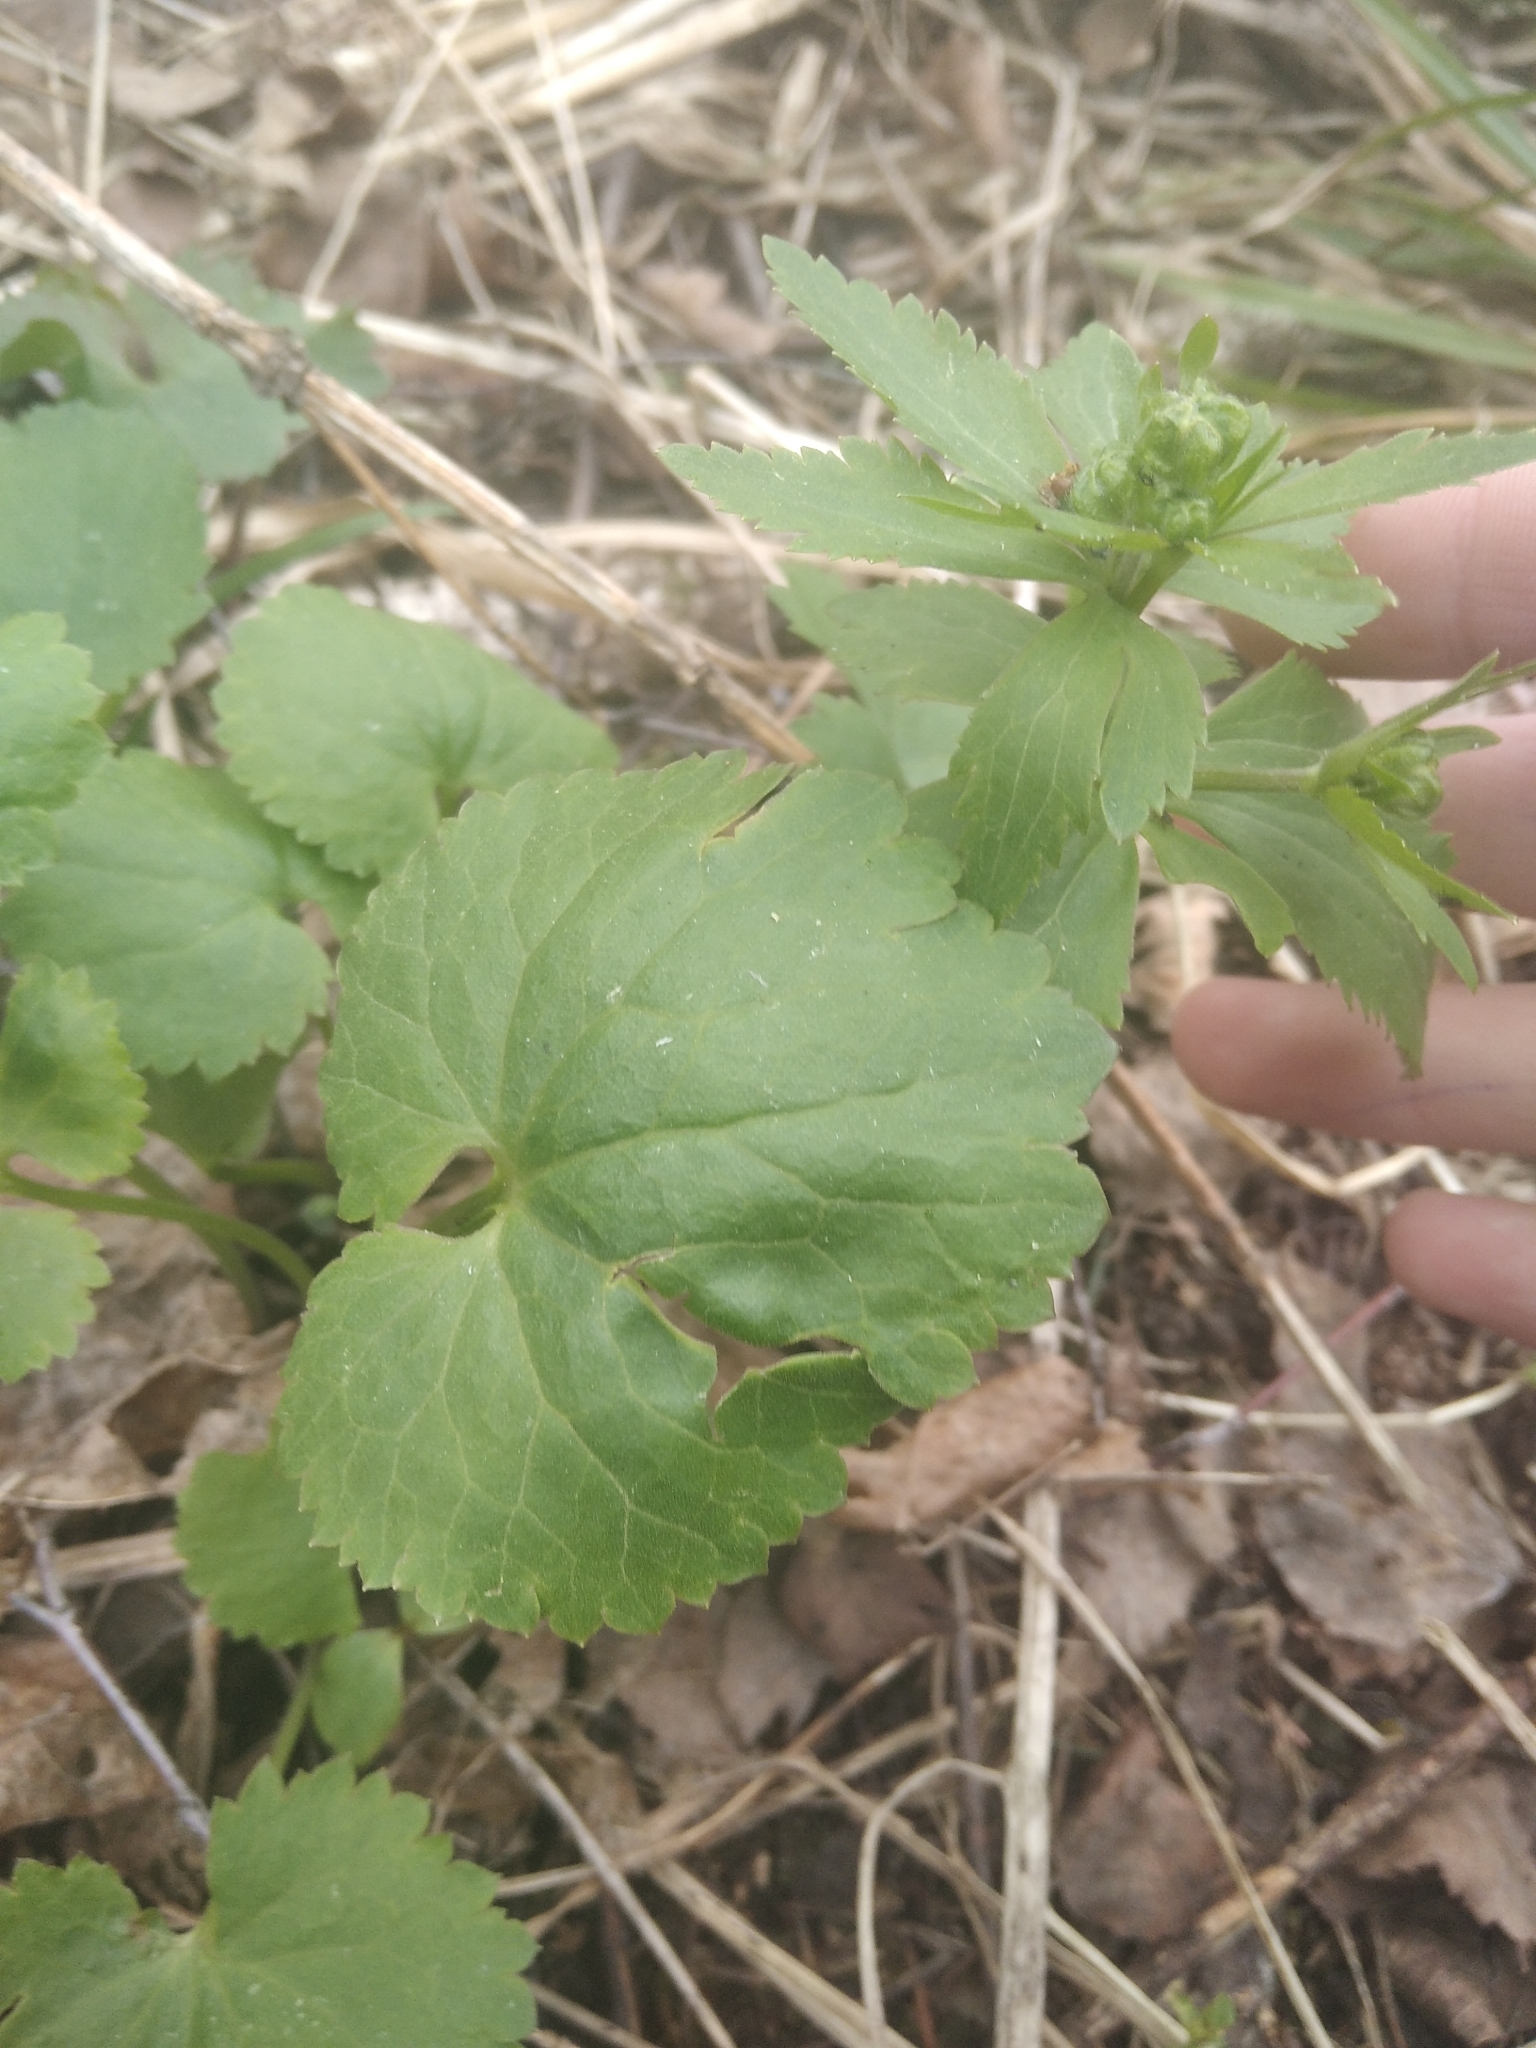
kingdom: Plantae
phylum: Tracheophyta
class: Magnoliopsida
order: Ranunculales
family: Ranunculaceae
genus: Ranunculus
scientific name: Ranunculus cassubicus
